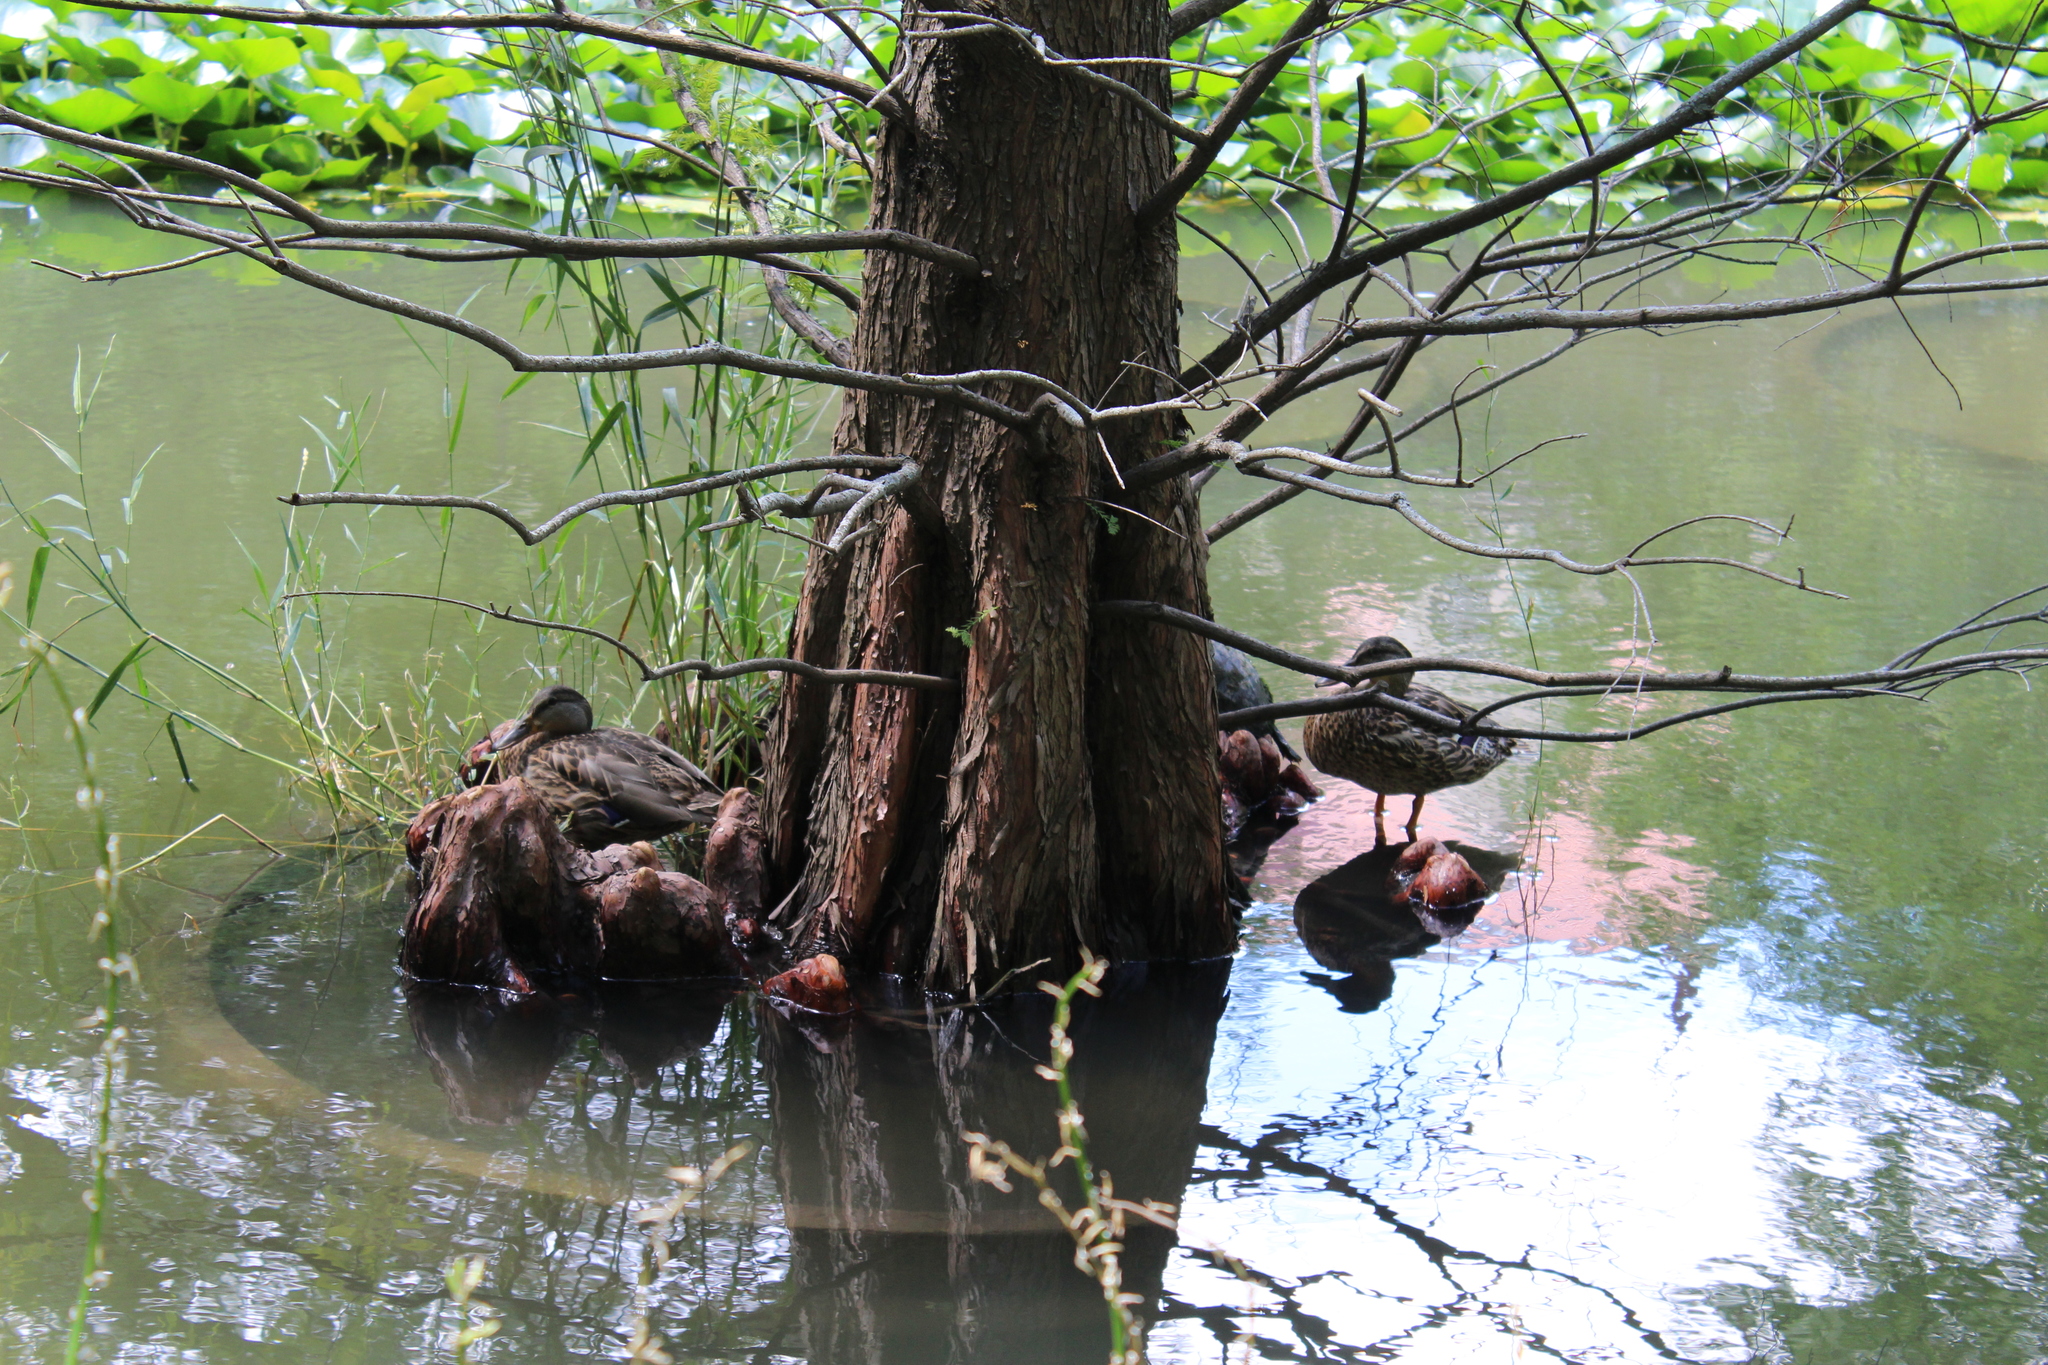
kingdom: Animalia
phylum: Chordata
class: Aves
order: Anseriformes
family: Anatidae
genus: Anas
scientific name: Anas platyrhynchos
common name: Mallard
